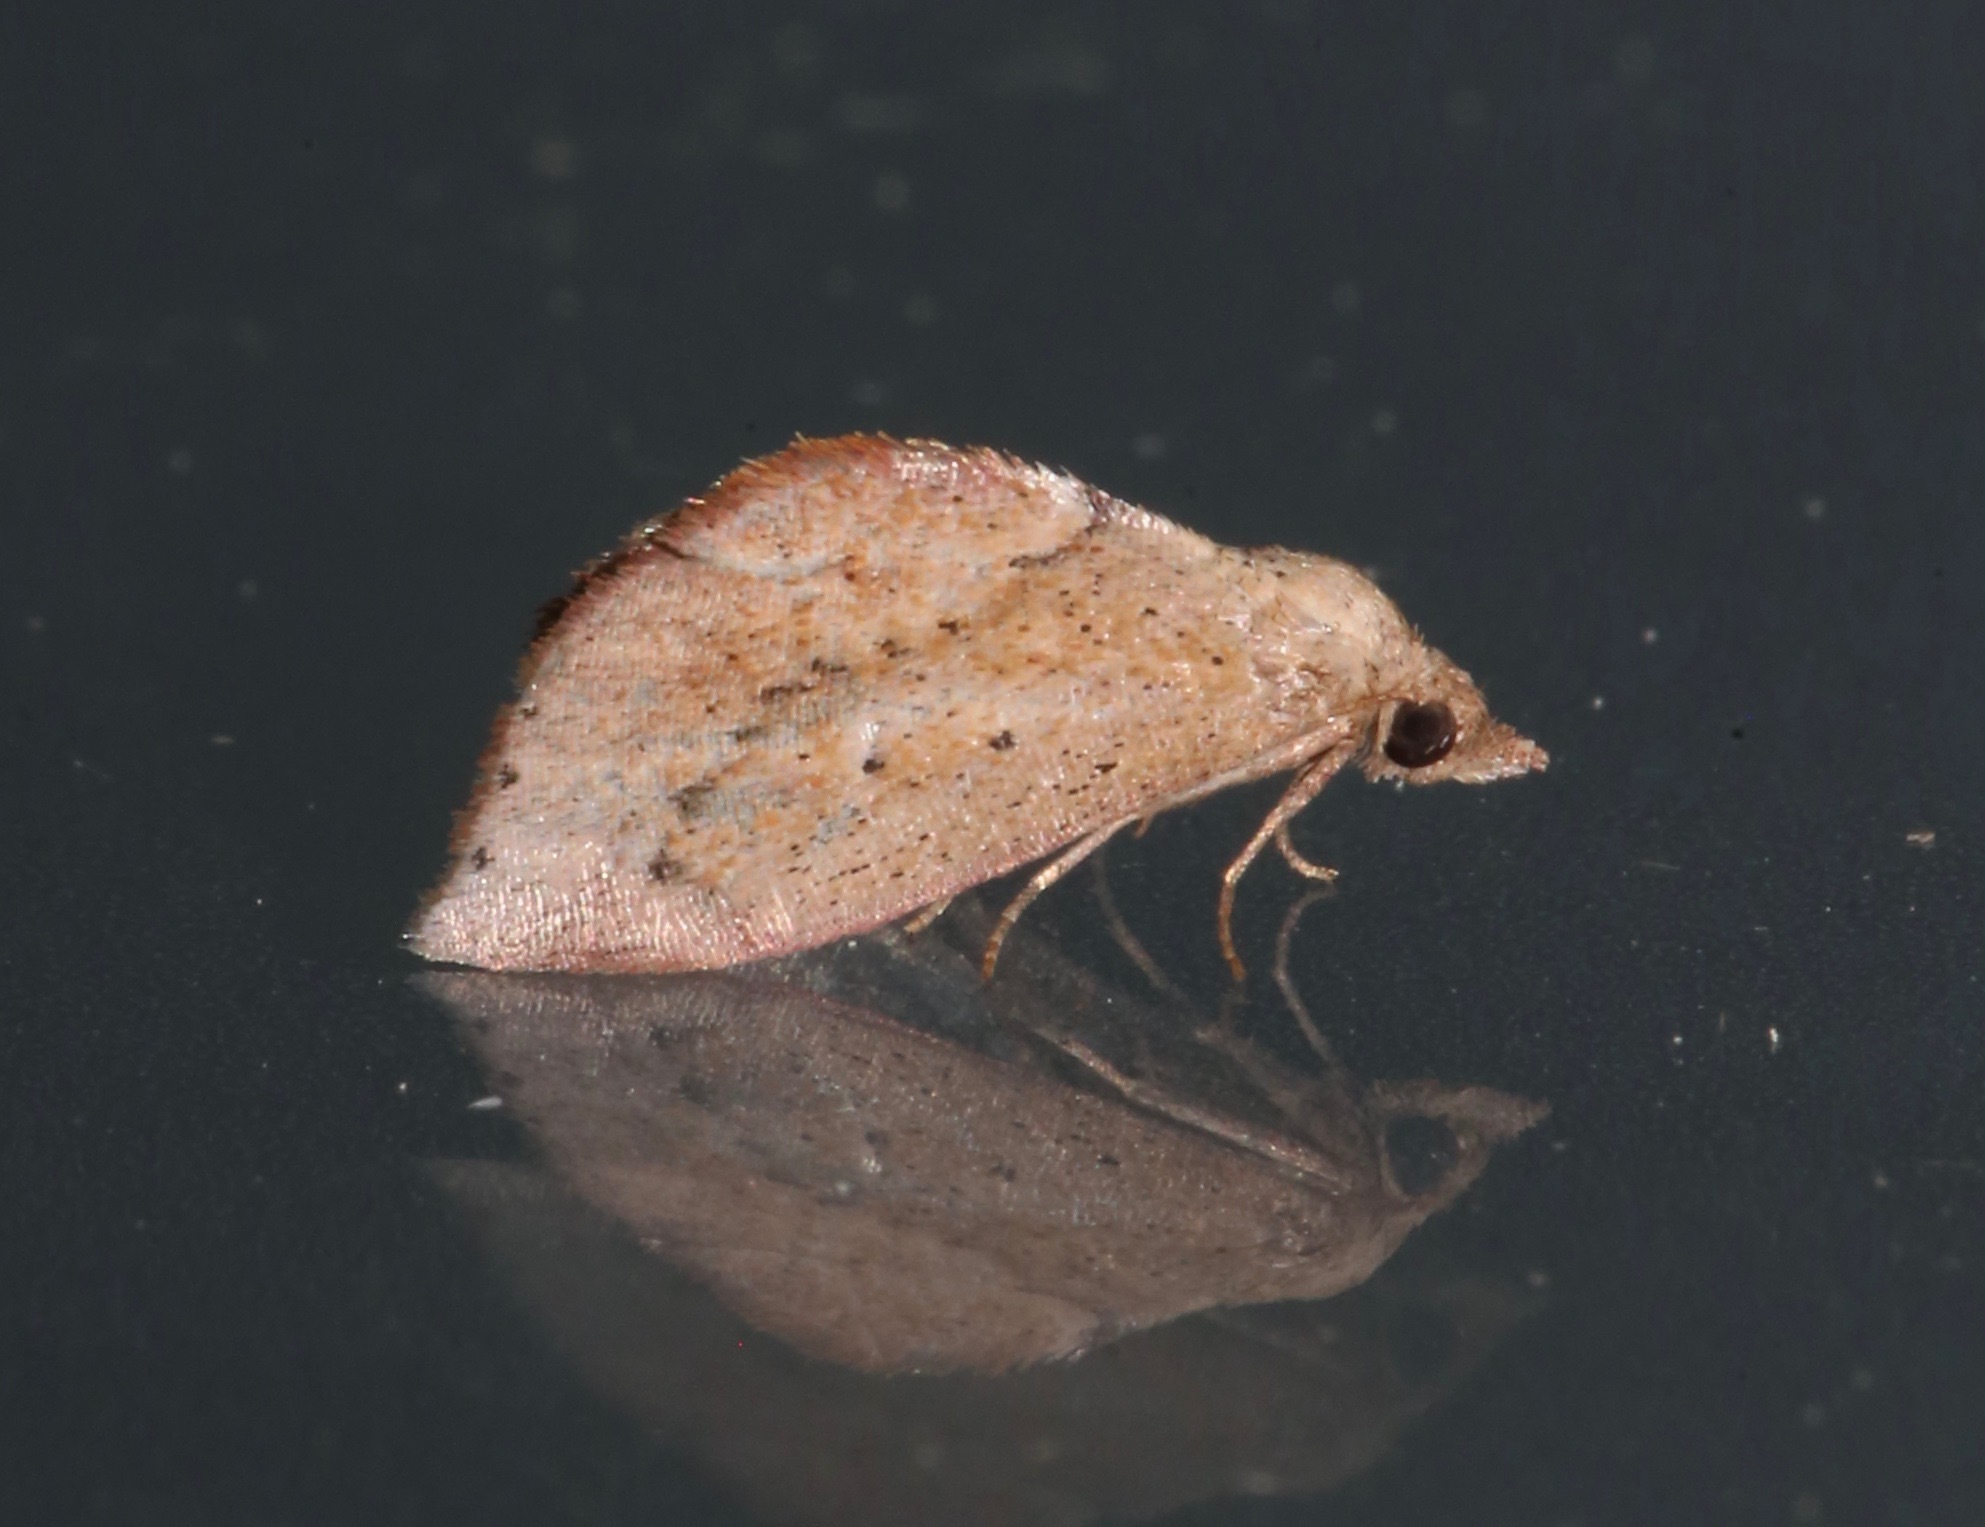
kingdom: Animalia
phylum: Arthropoda
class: Insecta
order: Lepidoptera
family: Noctuidae
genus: Proroblemma
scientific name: Proroblemma testa
